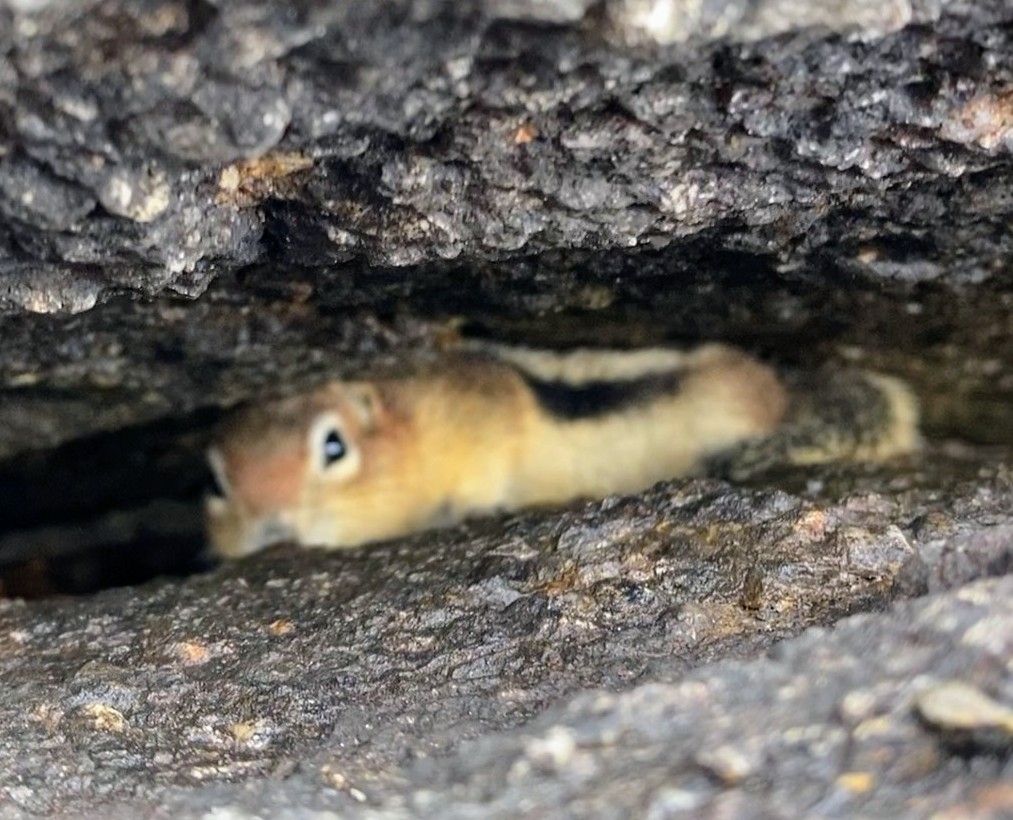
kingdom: Animalia
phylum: Chordata
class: Mammalia
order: Rodentia
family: Sciuridae
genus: Callospermophilus
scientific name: Callospermophilus lateralis
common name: Golden-mantled ground squirrel
